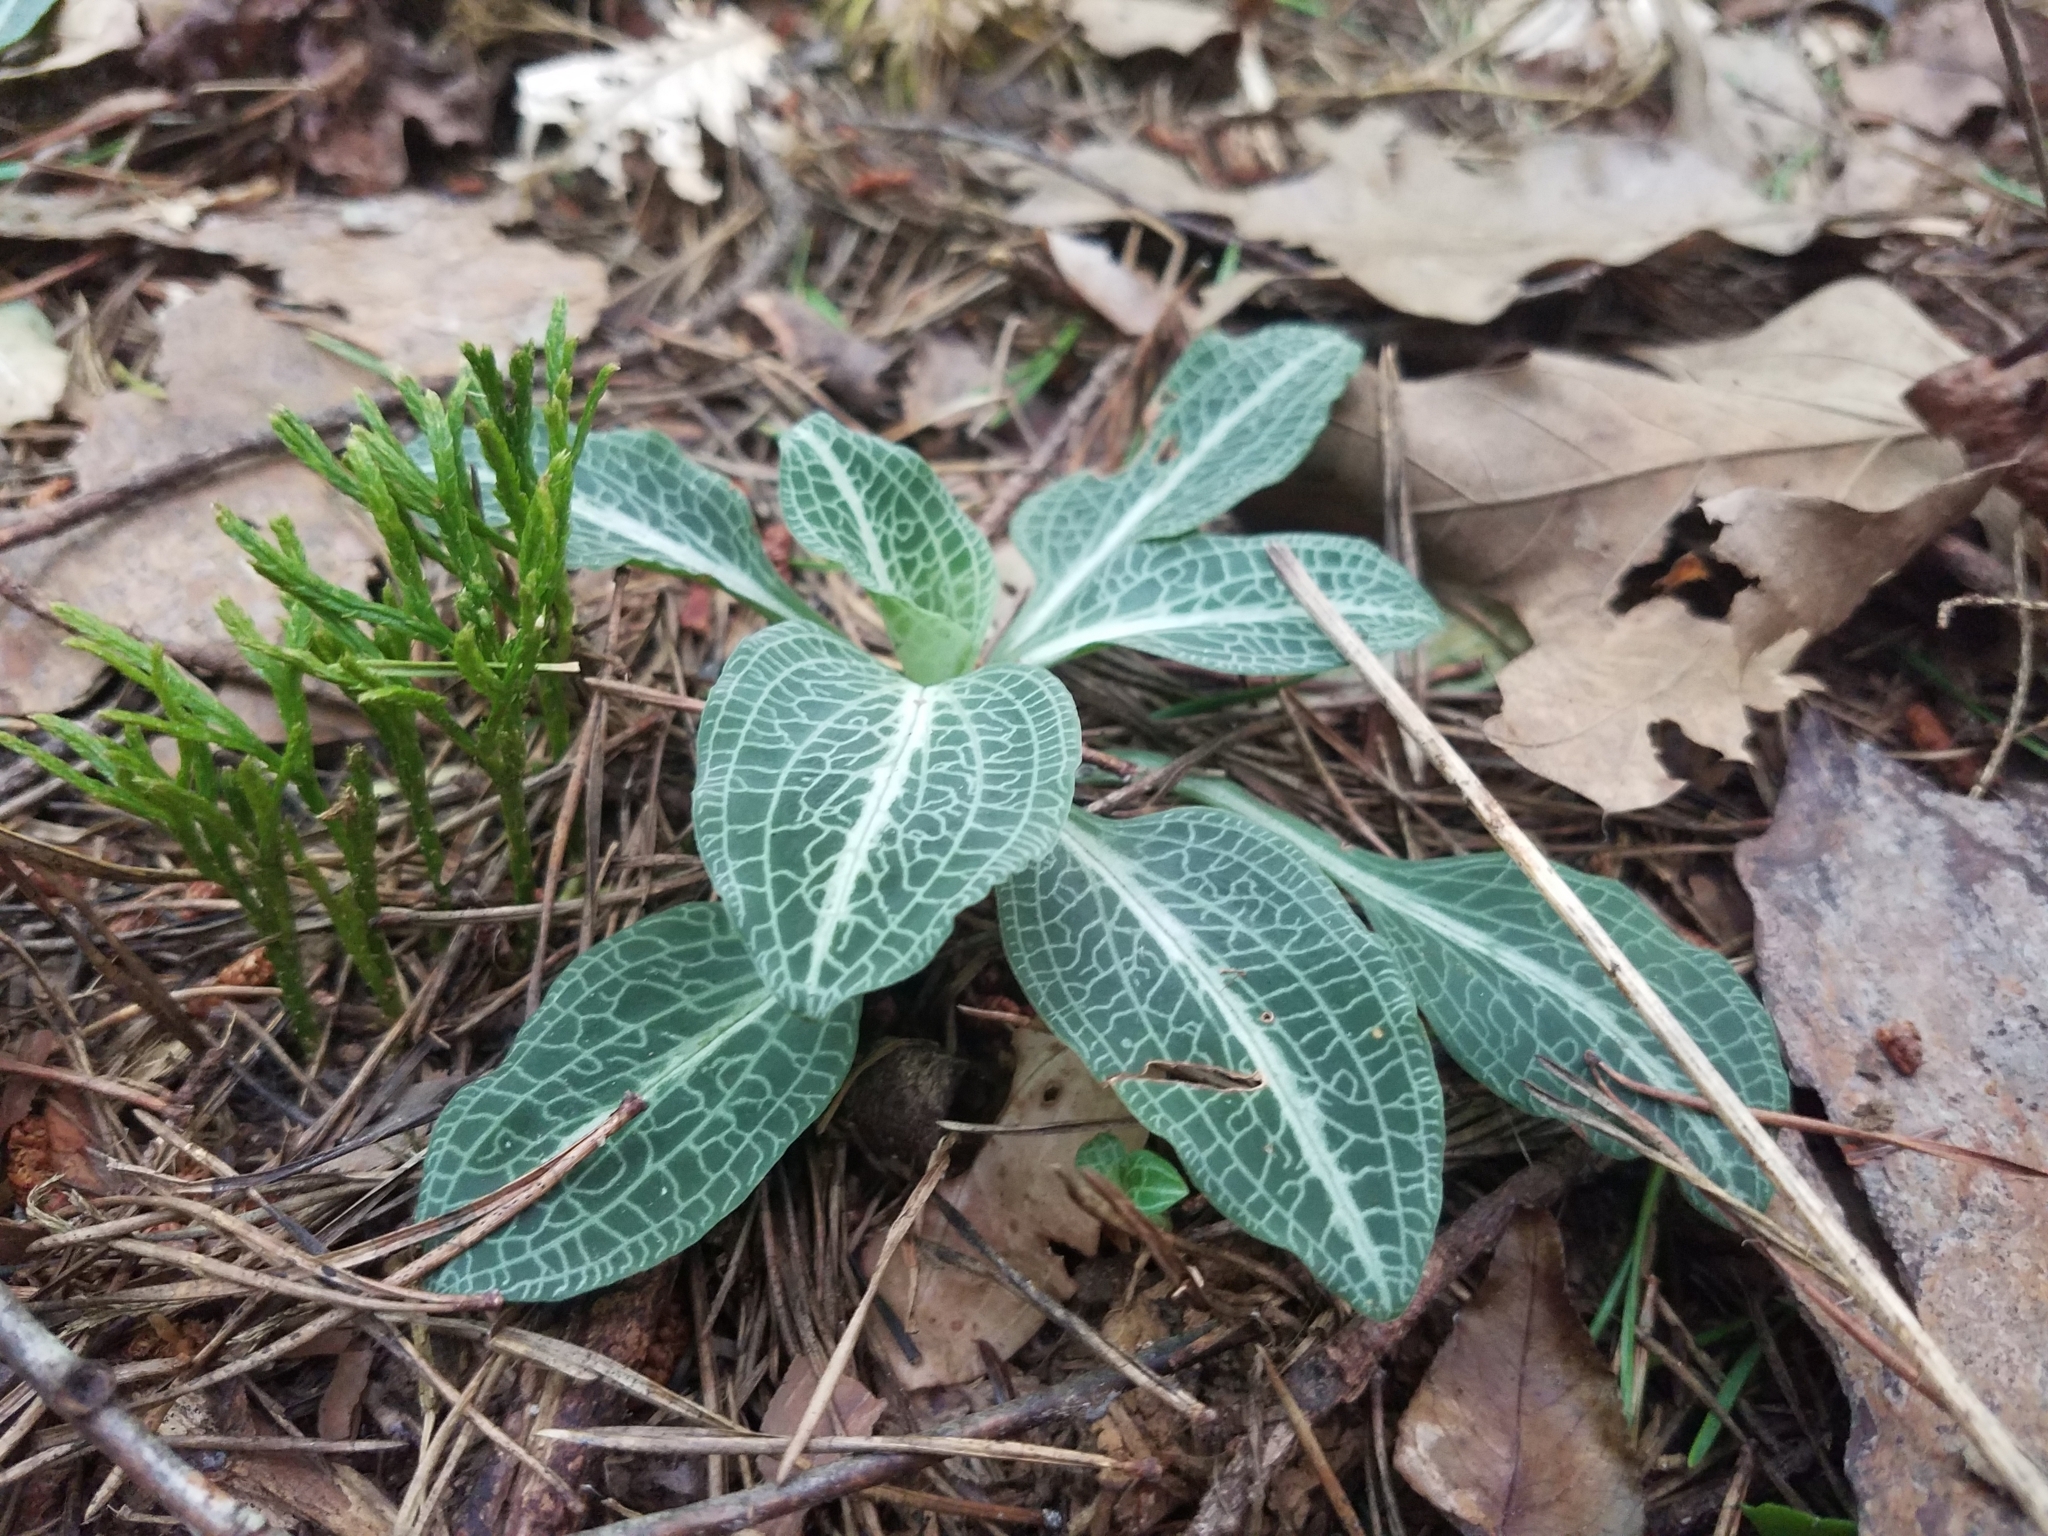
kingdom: Plantae
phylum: Tracheophyta
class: Liliopsida
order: Asparagales
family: Orchidaceae
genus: Goodyera
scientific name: Goodyera pubescens
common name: Downy rattlesnake-plantain
